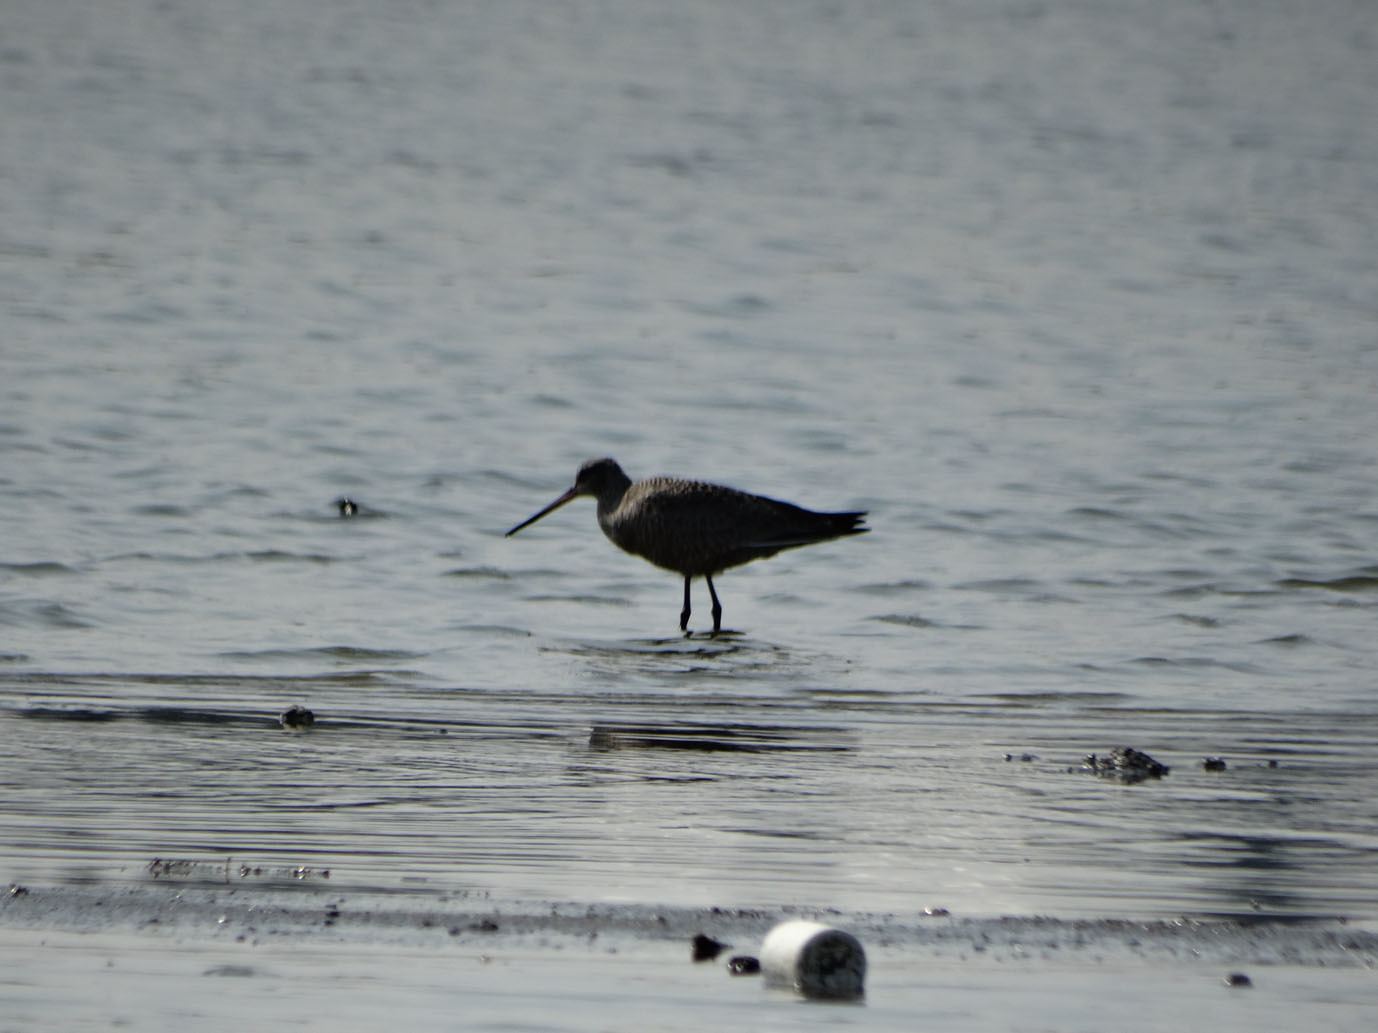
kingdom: Animalia
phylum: Chordata
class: Aves
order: Charadriiformes
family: Scolopacidae
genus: Limosa
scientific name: Limosa haemastica
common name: Hudsonian godwit
